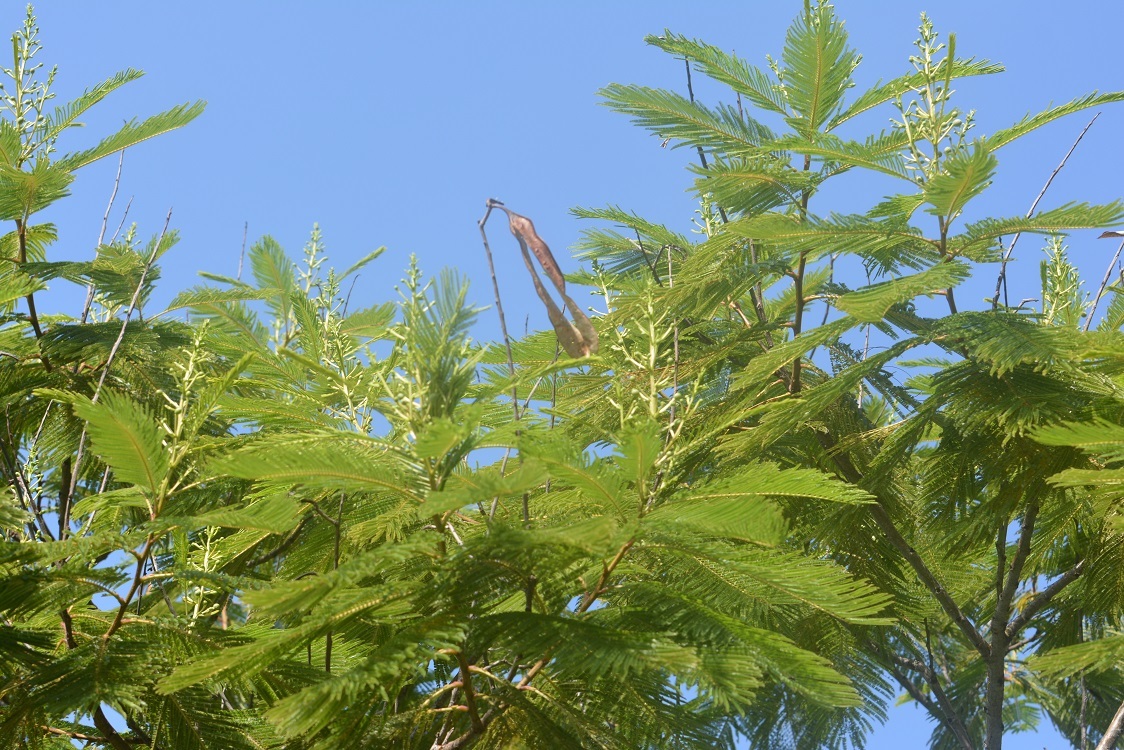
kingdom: Plantae
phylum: Tracheophyta
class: Magnoliopsida
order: Fabales
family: Fabaceae
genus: Acaciella
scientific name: Acaciella angustissima
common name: Prairie acacia
